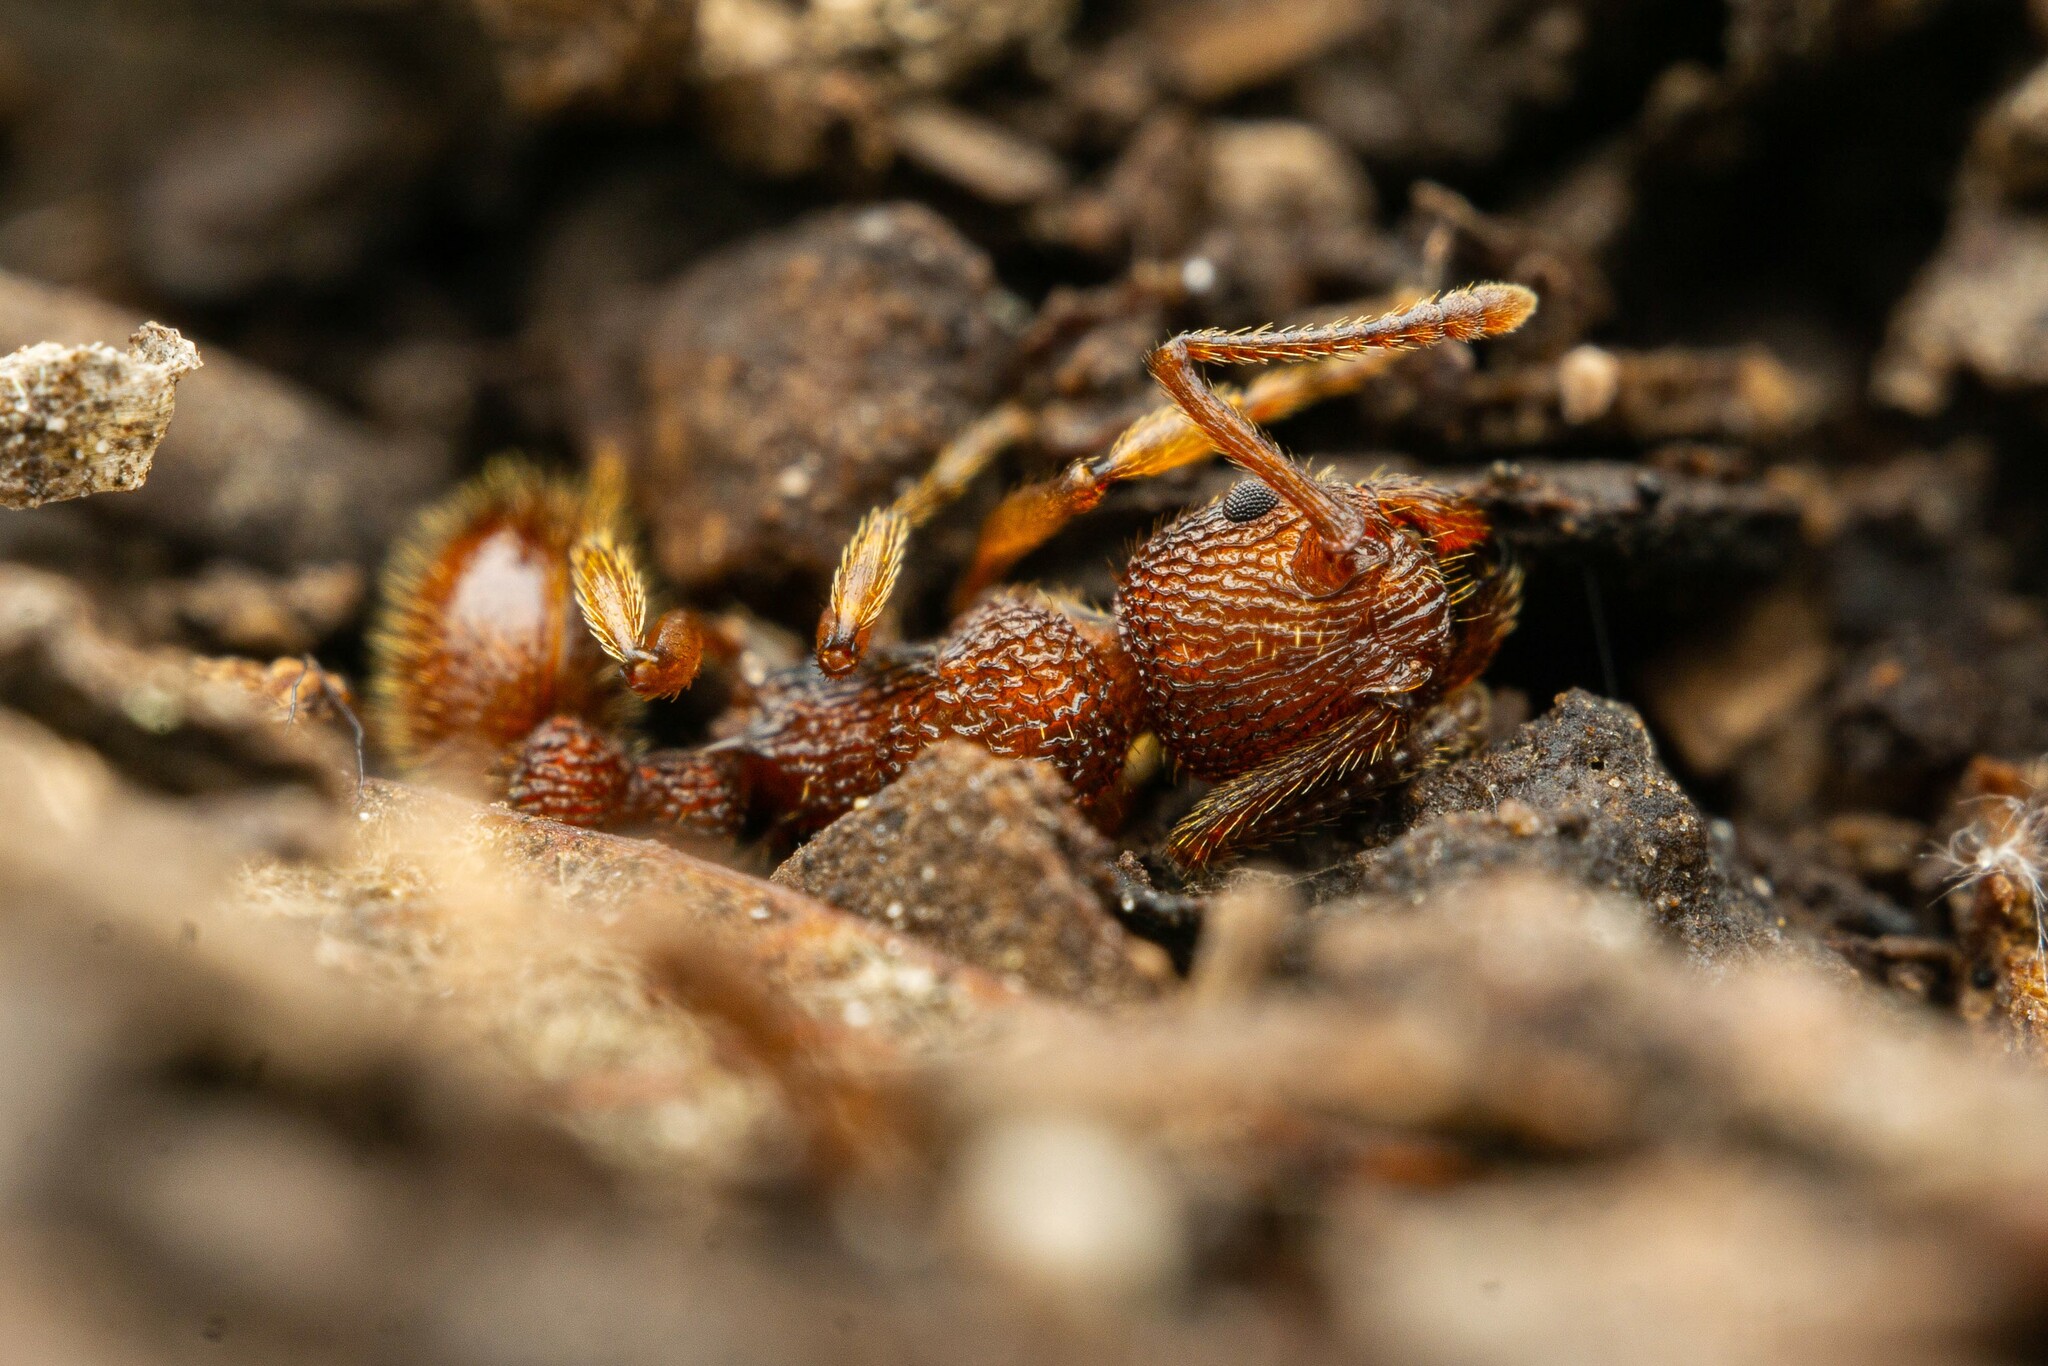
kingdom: Animalia
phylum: Arthropoda
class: Insecta
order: Hymenoptera
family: Formicidae
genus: Myrmica
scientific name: Myrmica striolagaster
